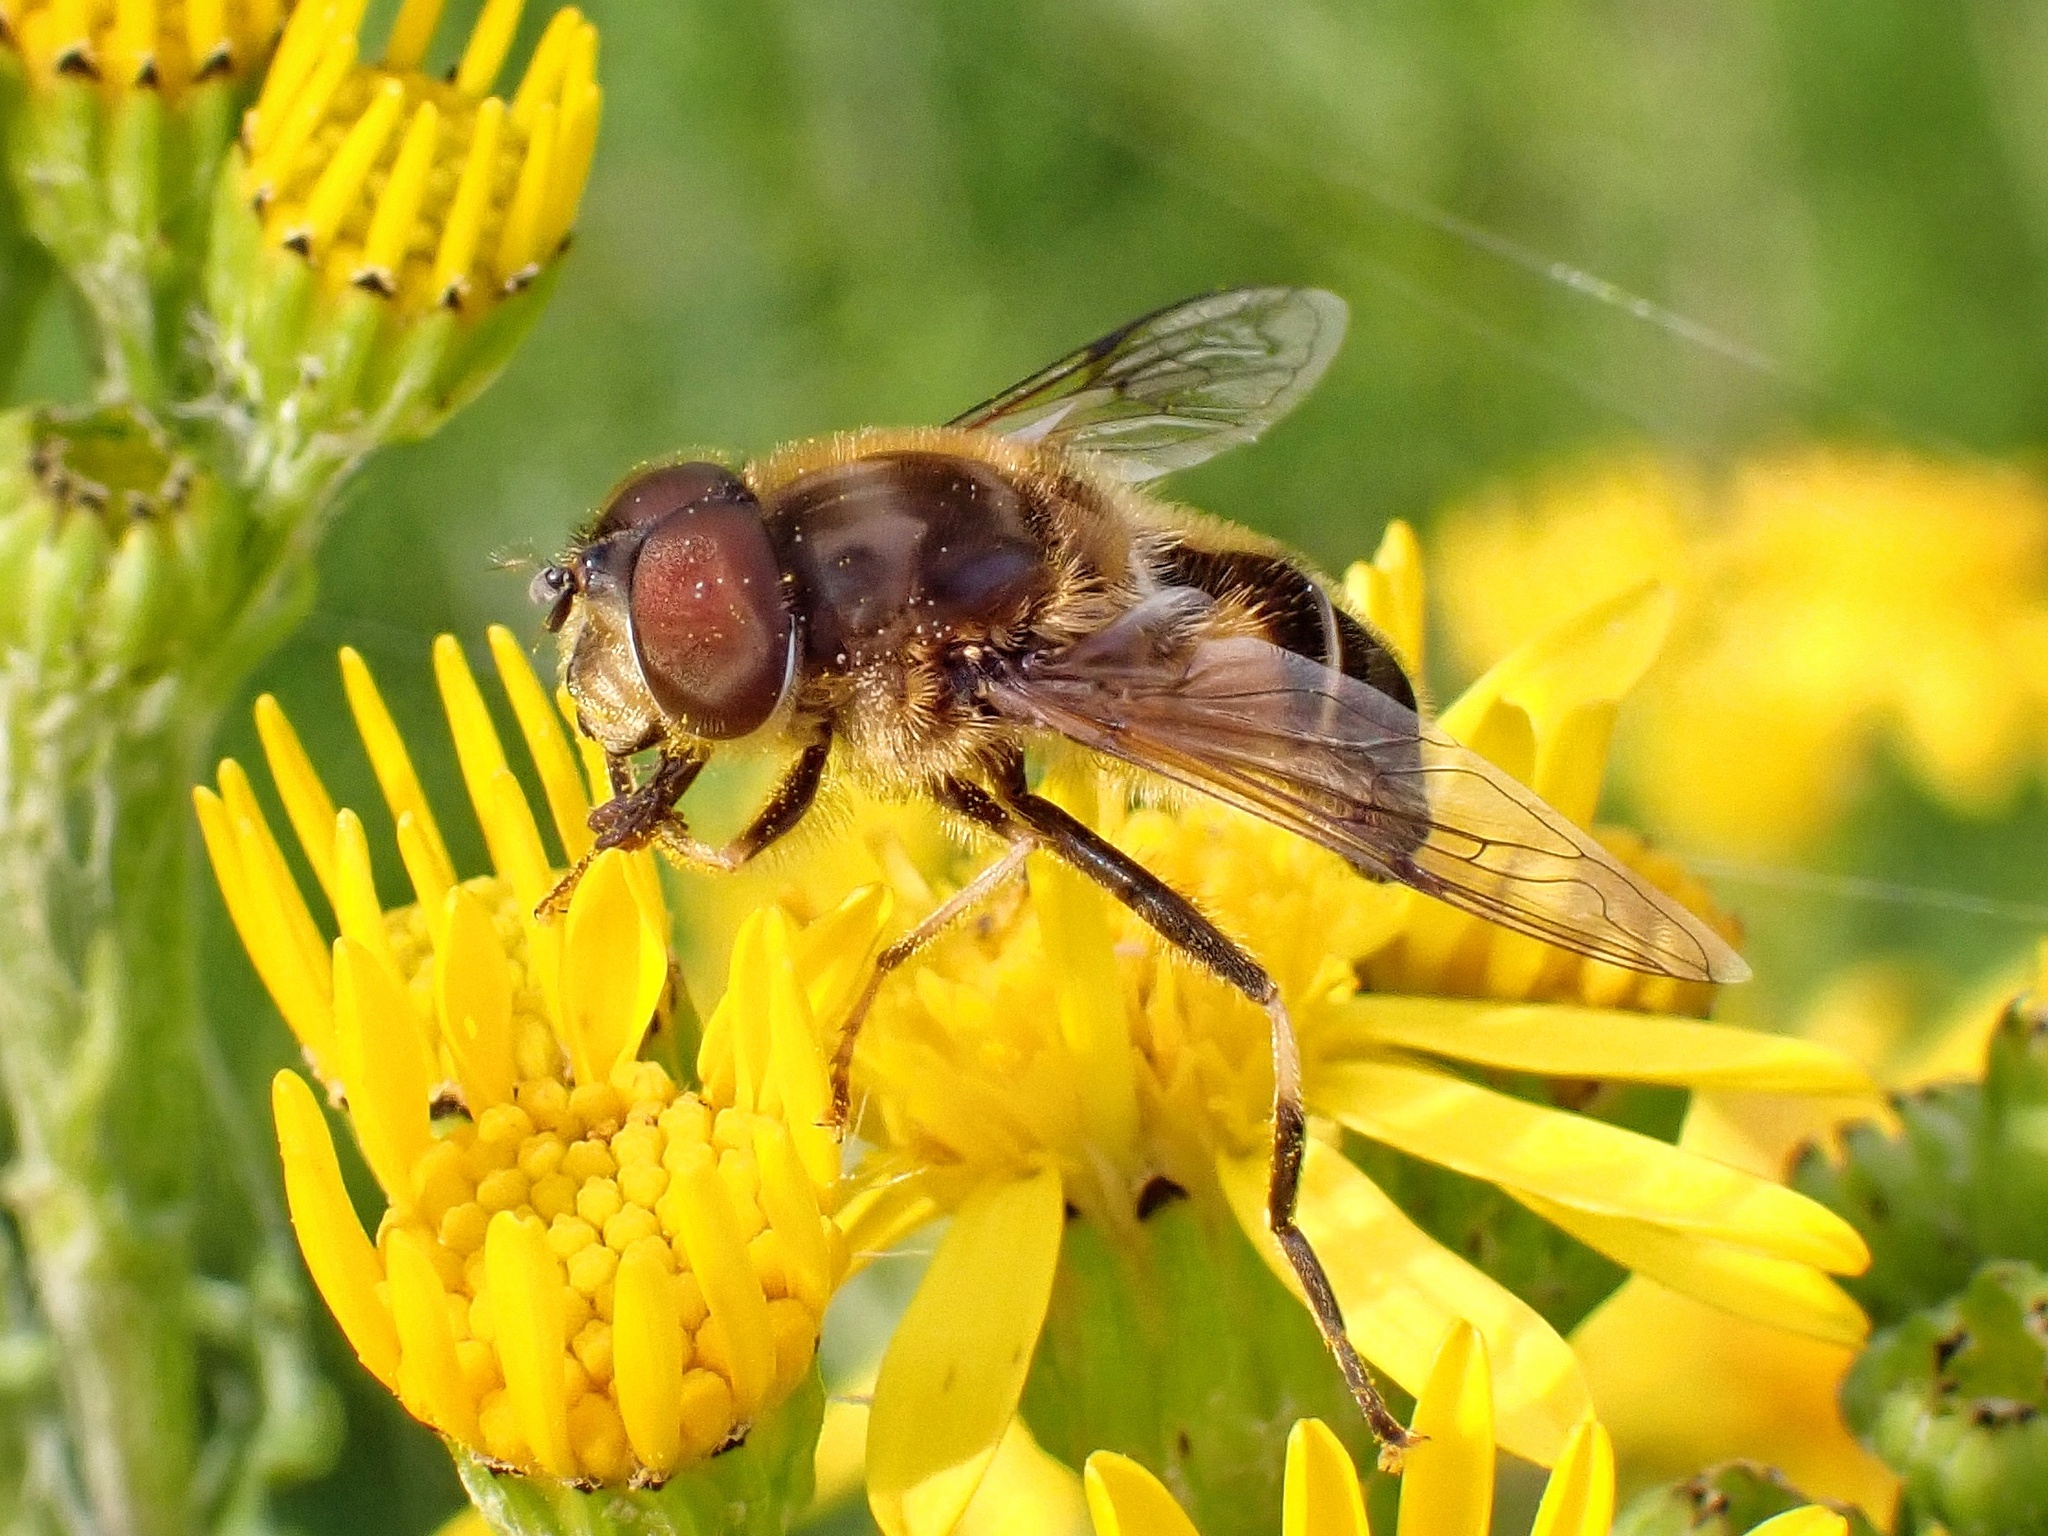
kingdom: Animalia
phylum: Arthropoda
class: Insecta
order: Diptera
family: Syrphidae
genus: Eristalis
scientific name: Eristalis pertinax
